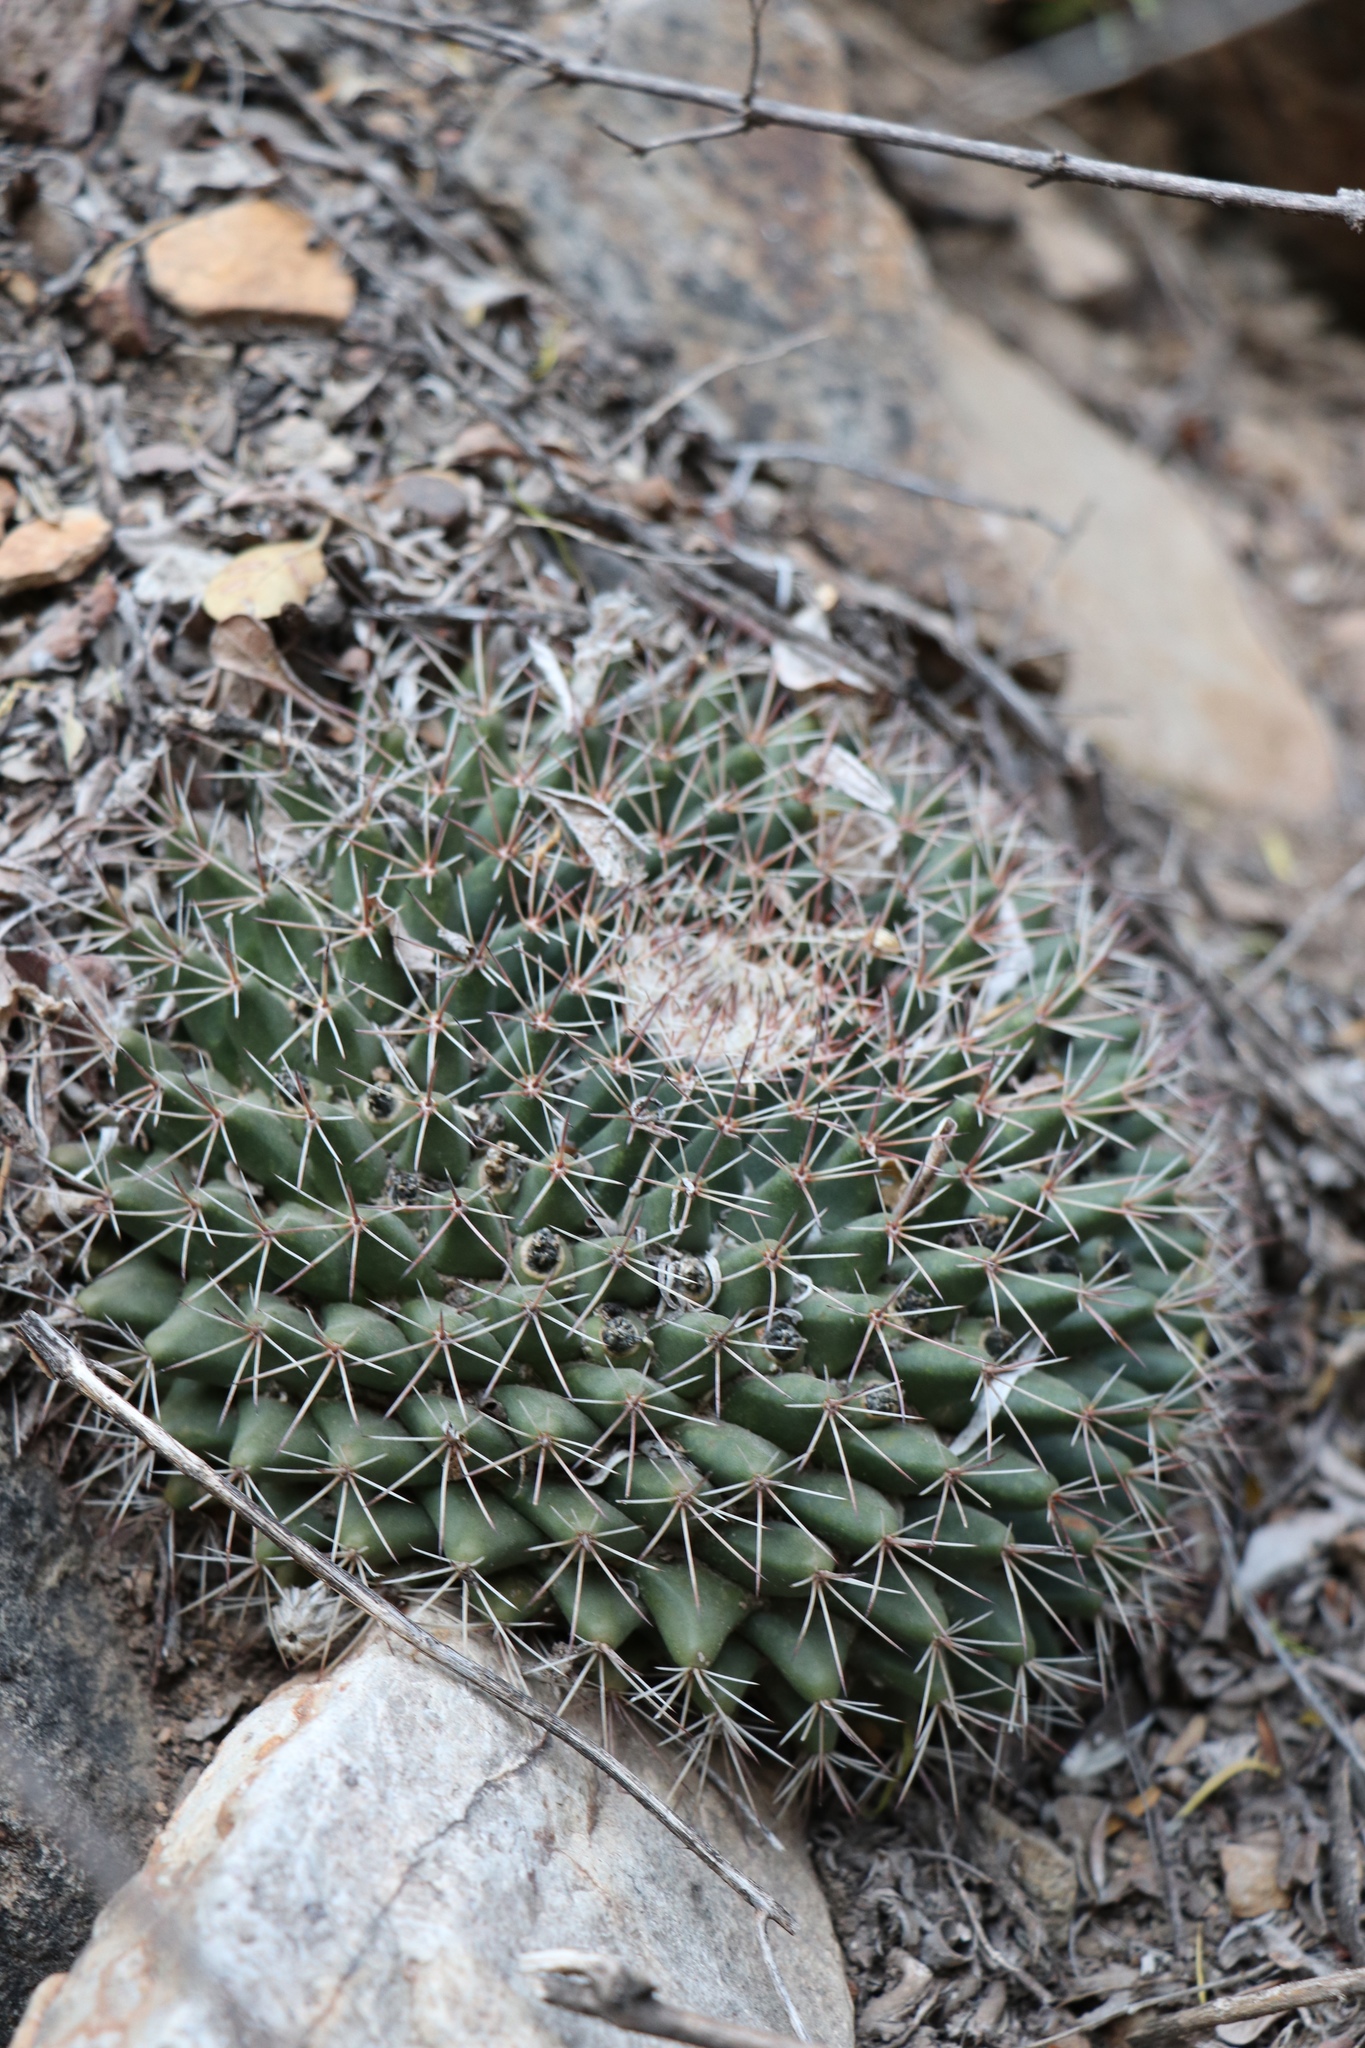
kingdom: Plantae
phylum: Tracheophyta
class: Magnoliopsida
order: Caryophyllales
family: Cactaceae
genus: Mammillaria
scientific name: Mammillaria heyderi
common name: Little nipple cactus
